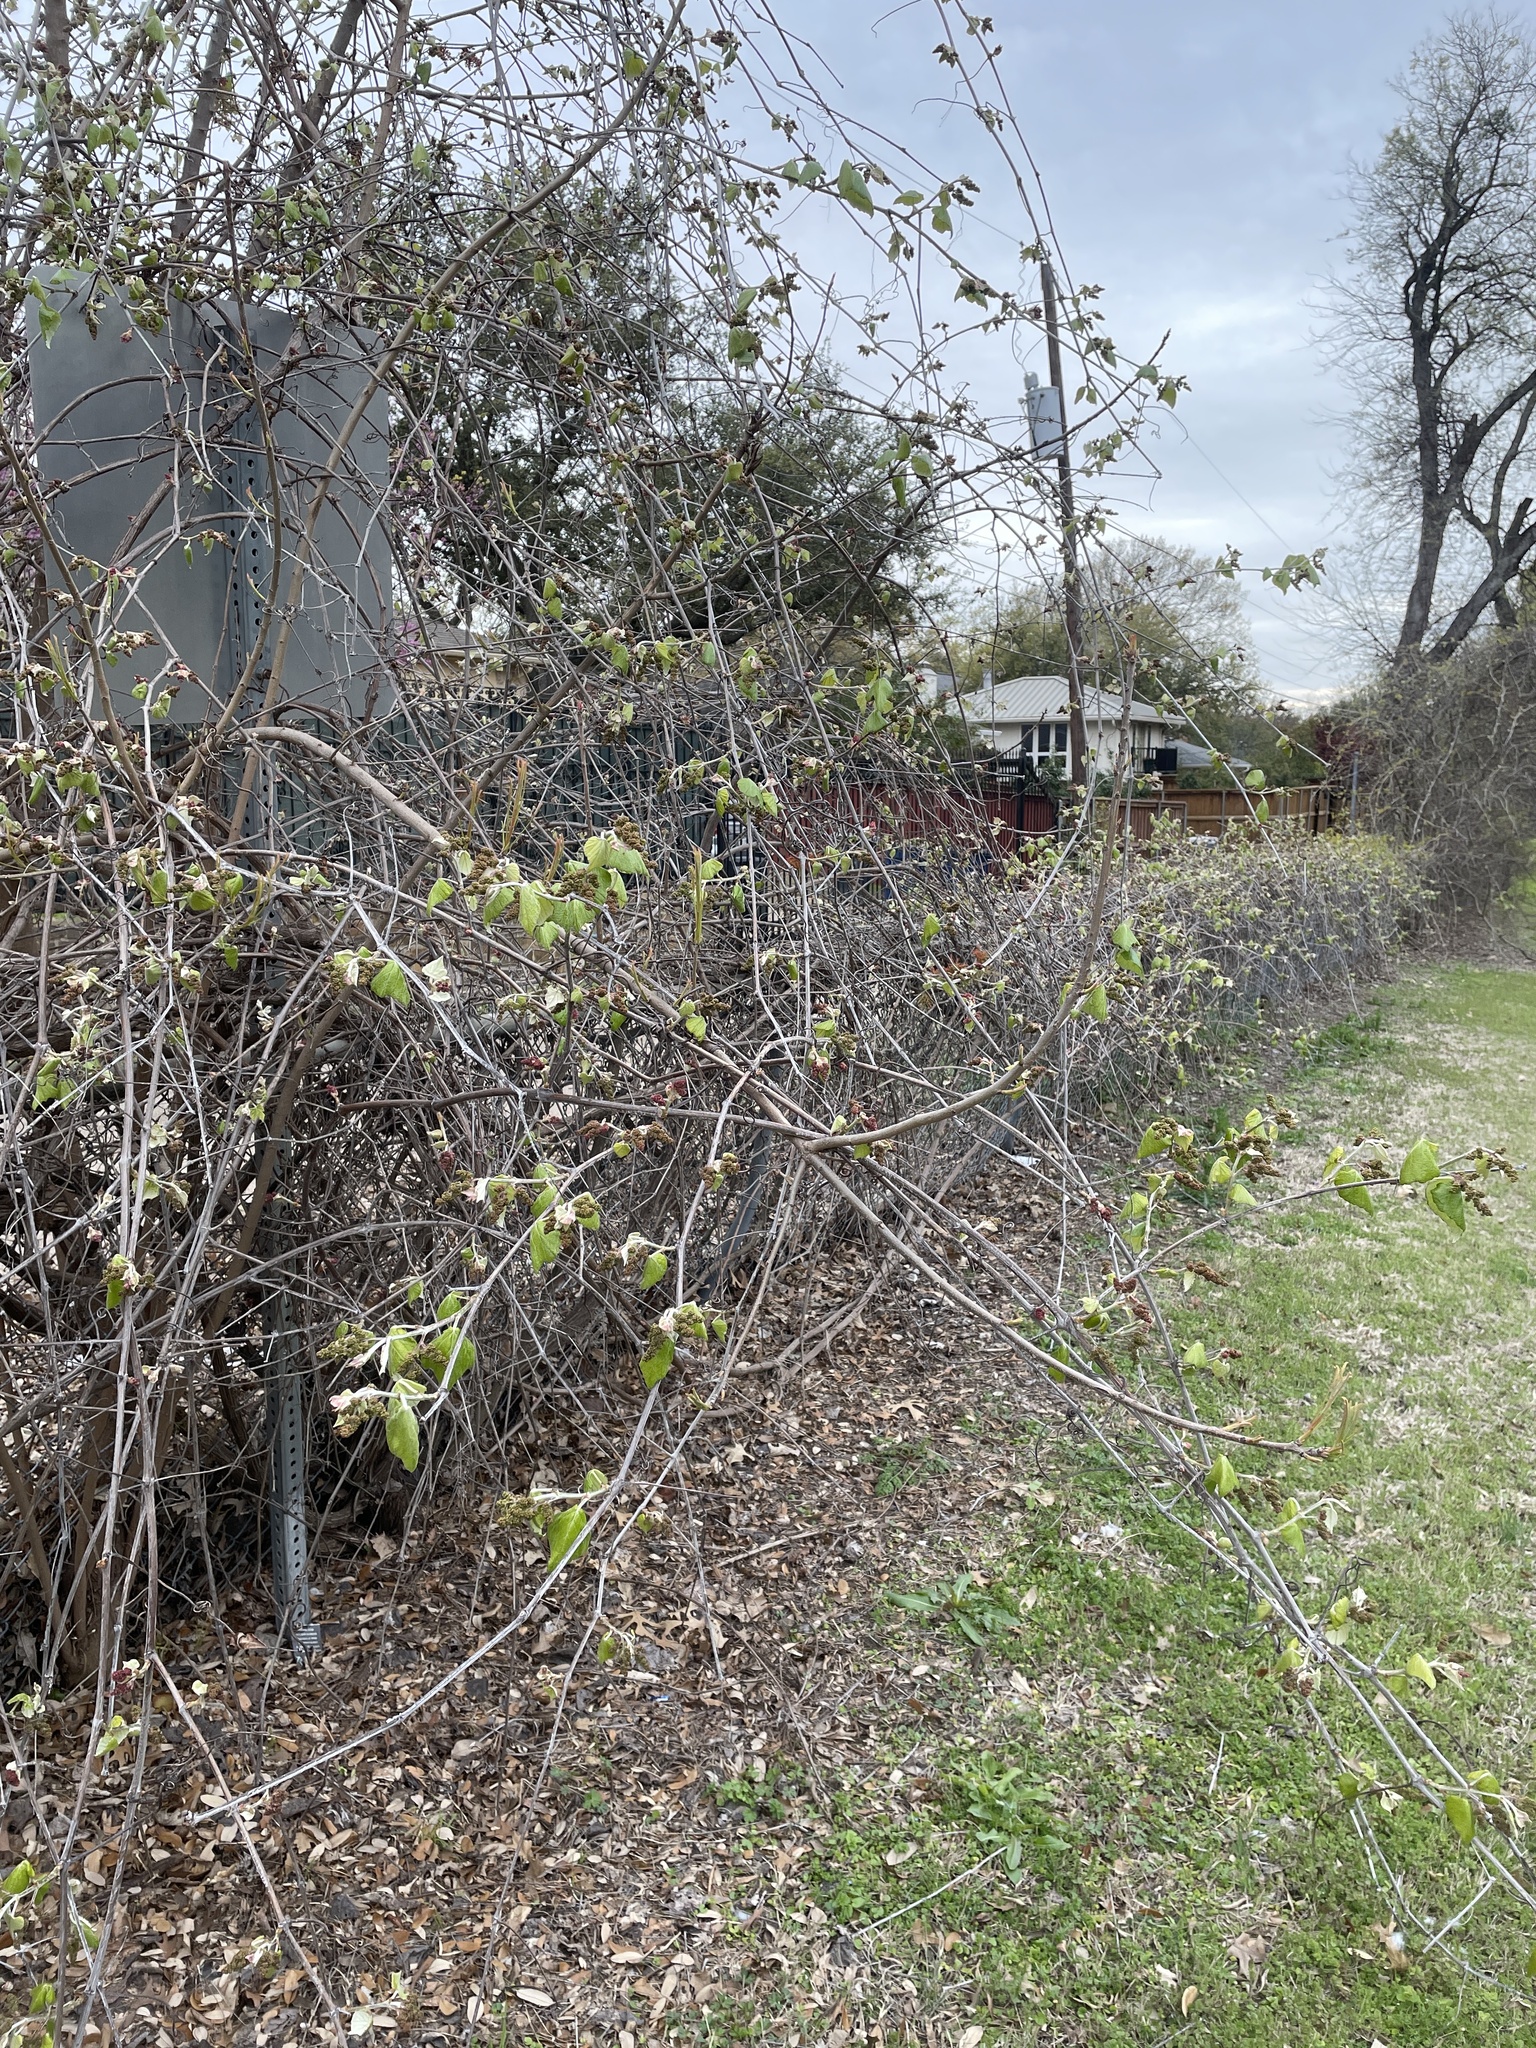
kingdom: Plantae
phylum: Tracheophyta
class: Magnoliopsida
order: Vitales
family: Vitaceae
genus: Vitis
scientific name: Vitis mustangensis
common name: Mustang grape
